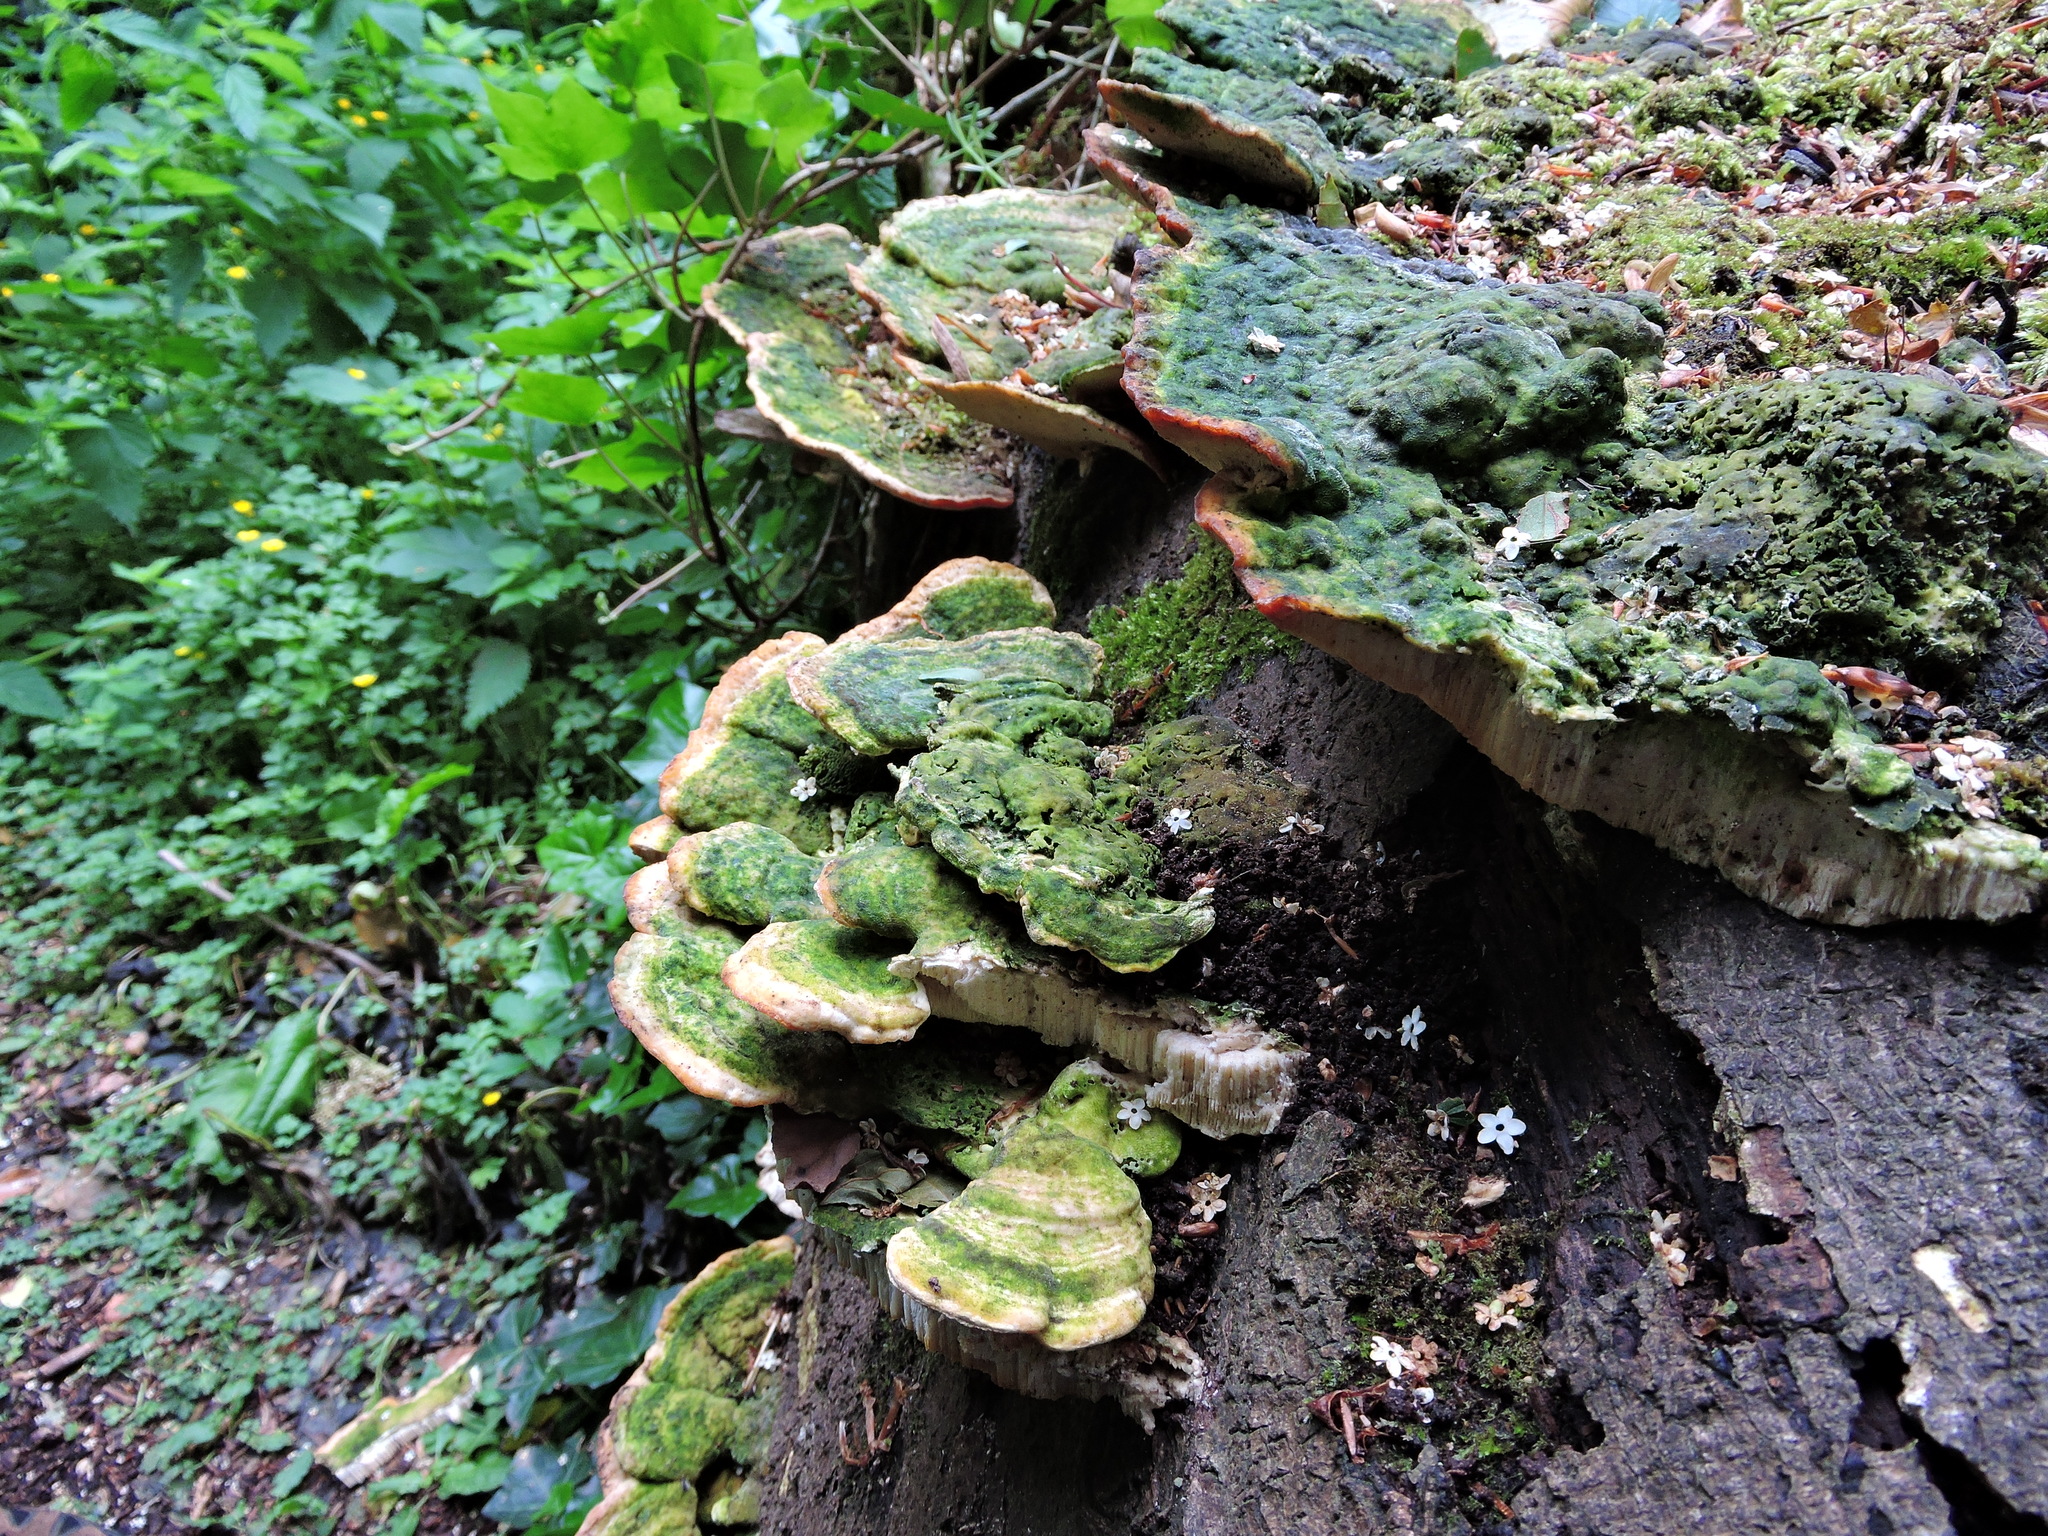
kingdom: Fungi
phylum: Basidiomycota
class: Agaricomycetes
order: Polyporales
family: Polyporaceae
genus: Trametes
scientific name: Trametes gibbosa
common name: Lumpy bracket
